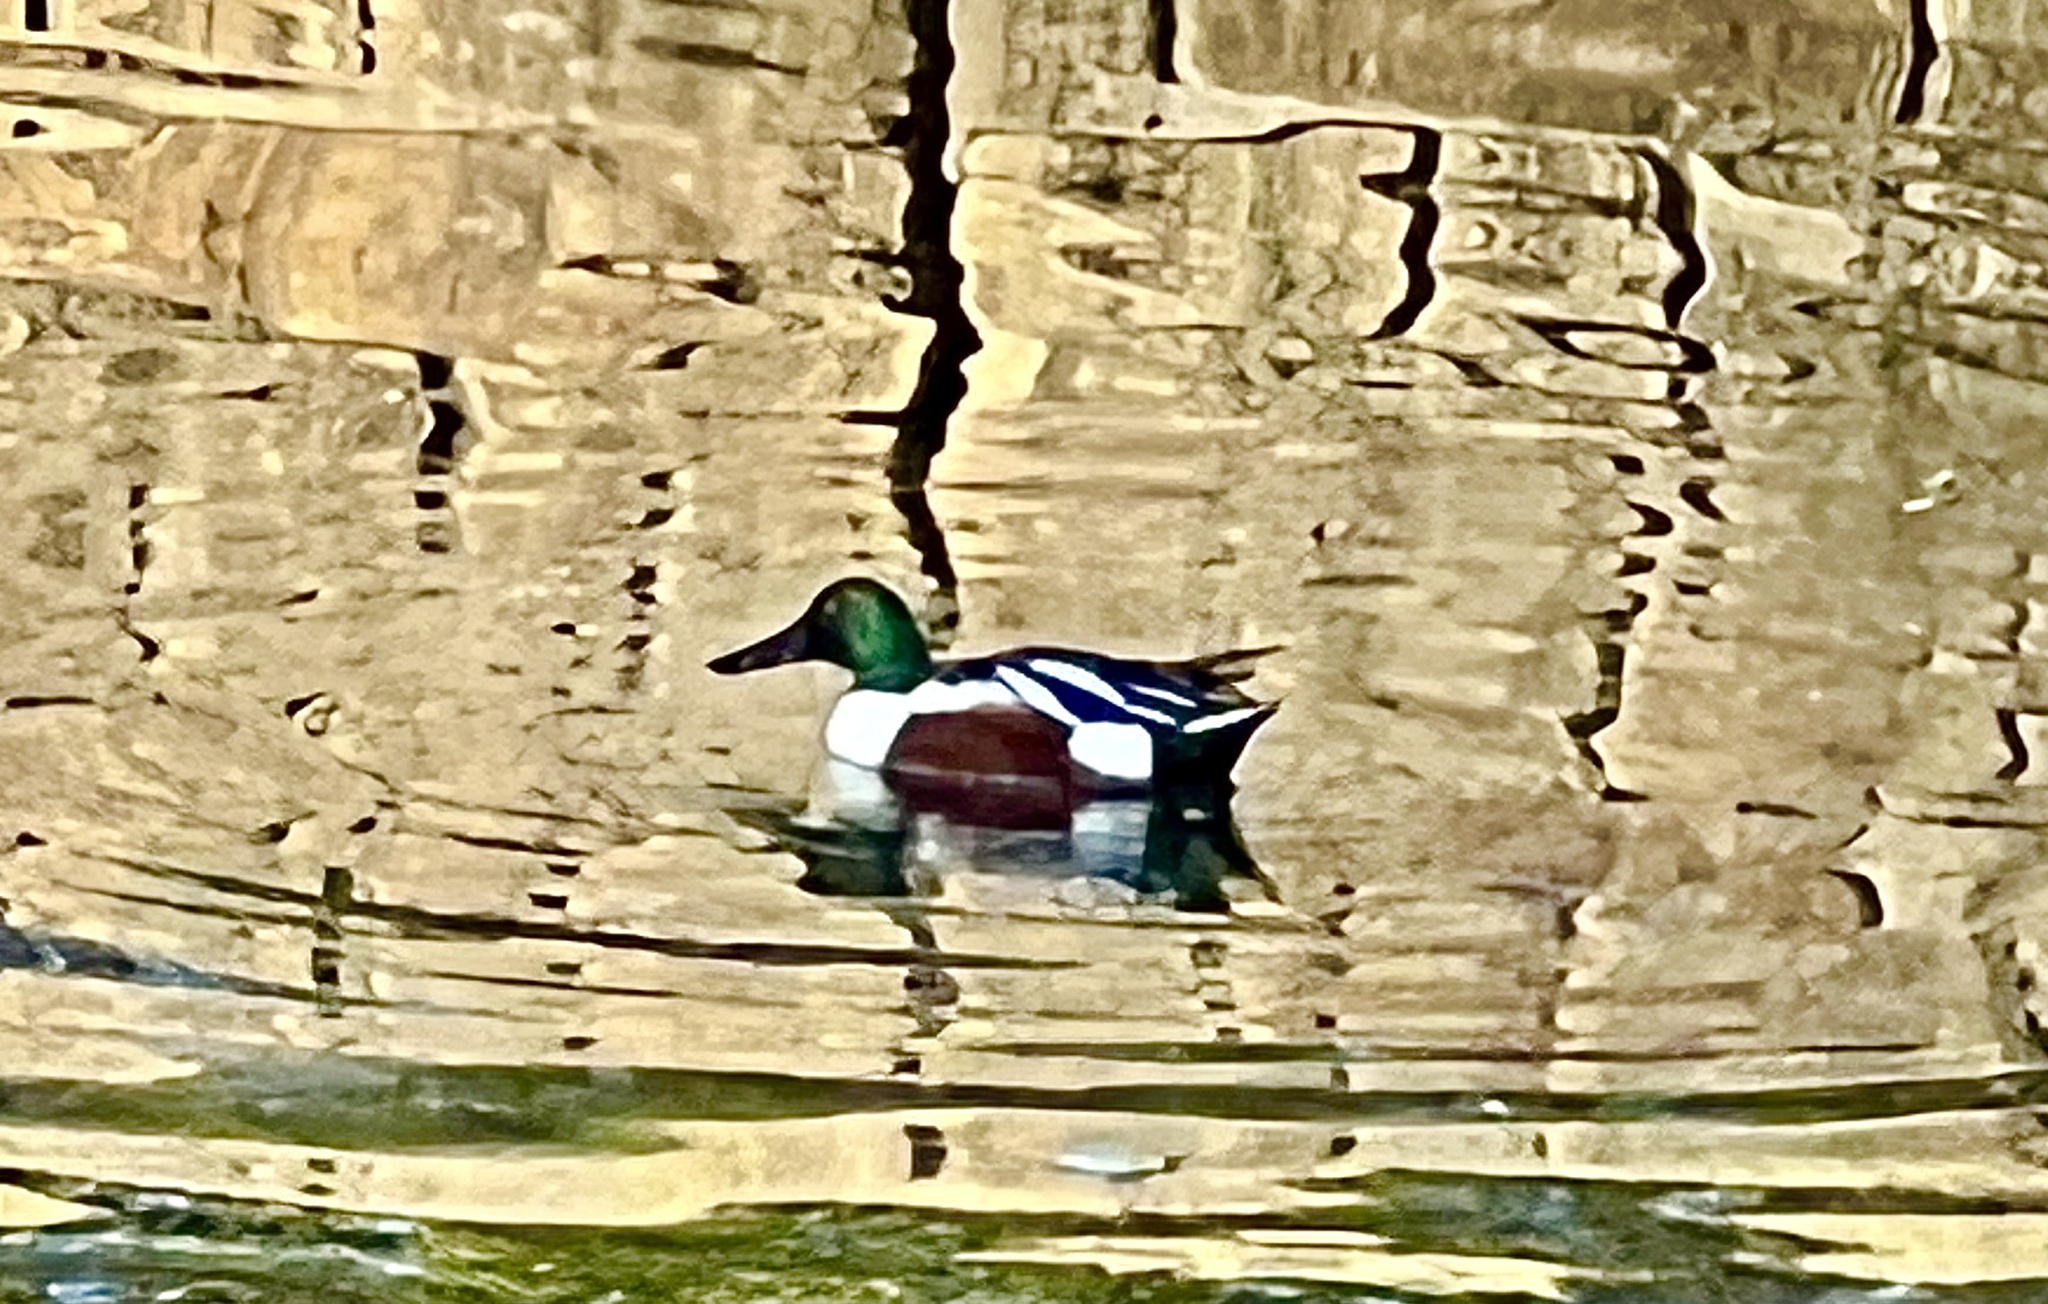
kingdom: Animalia
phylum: Chordata
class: Aves
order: Anseriformes
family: Anatidae
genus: Spatula
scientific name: Spatula clypeata
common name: Northern shoveler
